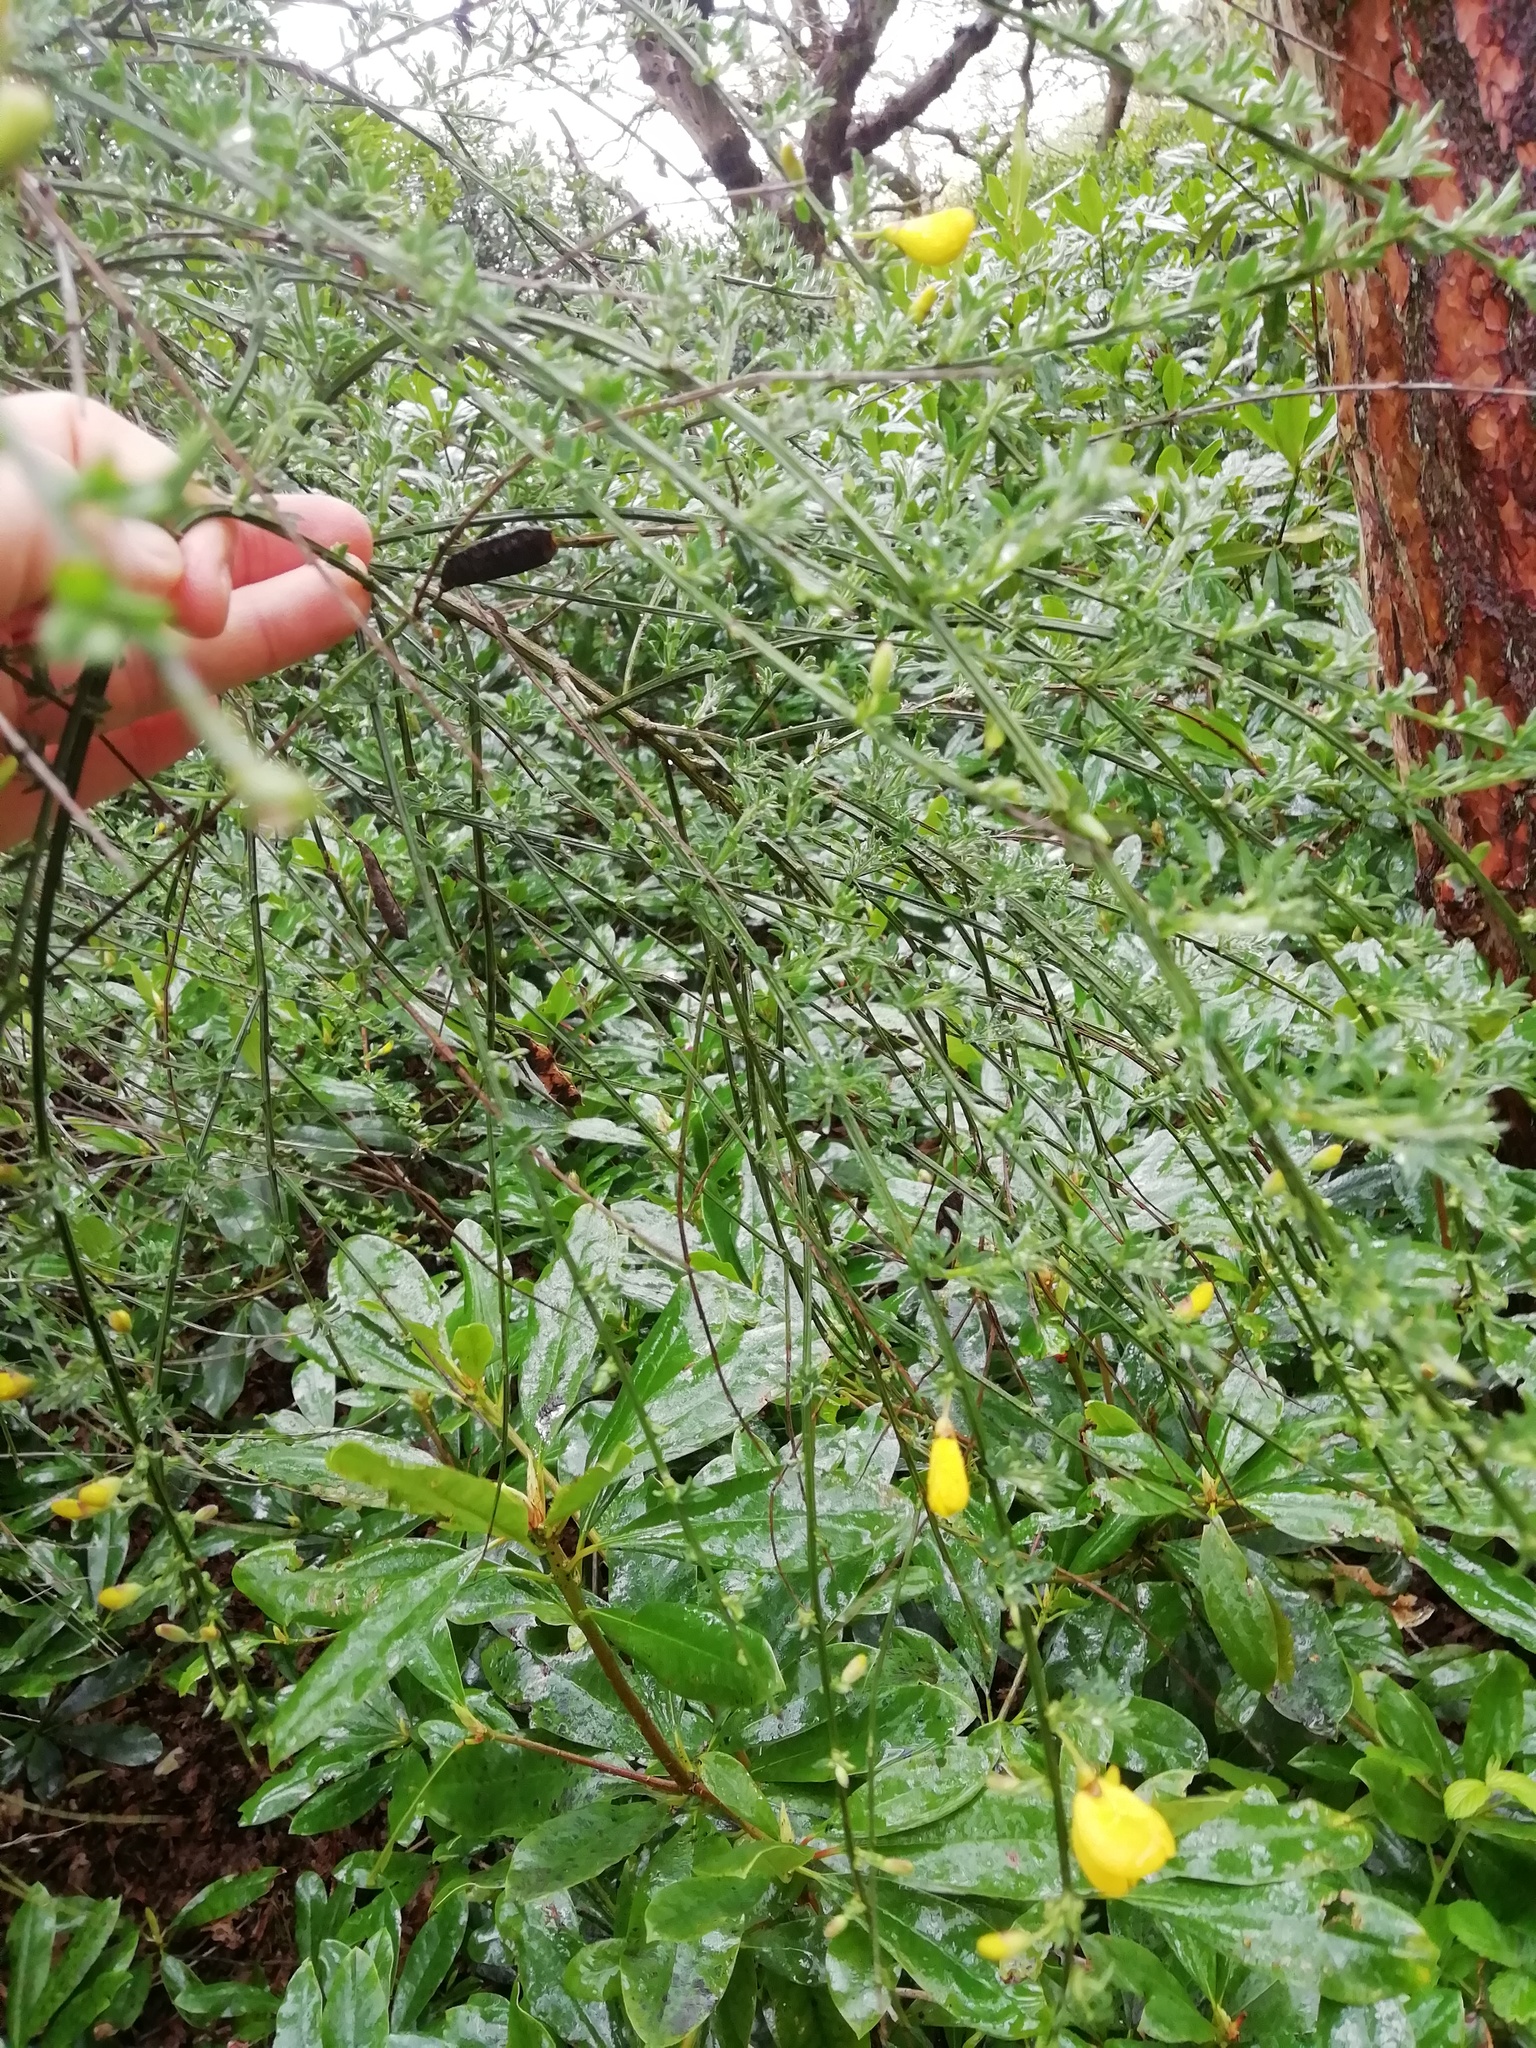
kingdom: Plantae
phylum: Tracheophyta
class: Magnoliopsida
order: Fabales
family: Fabaceae
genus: Cytisus
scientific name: Cytisus scoparius
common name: Scotch broom
